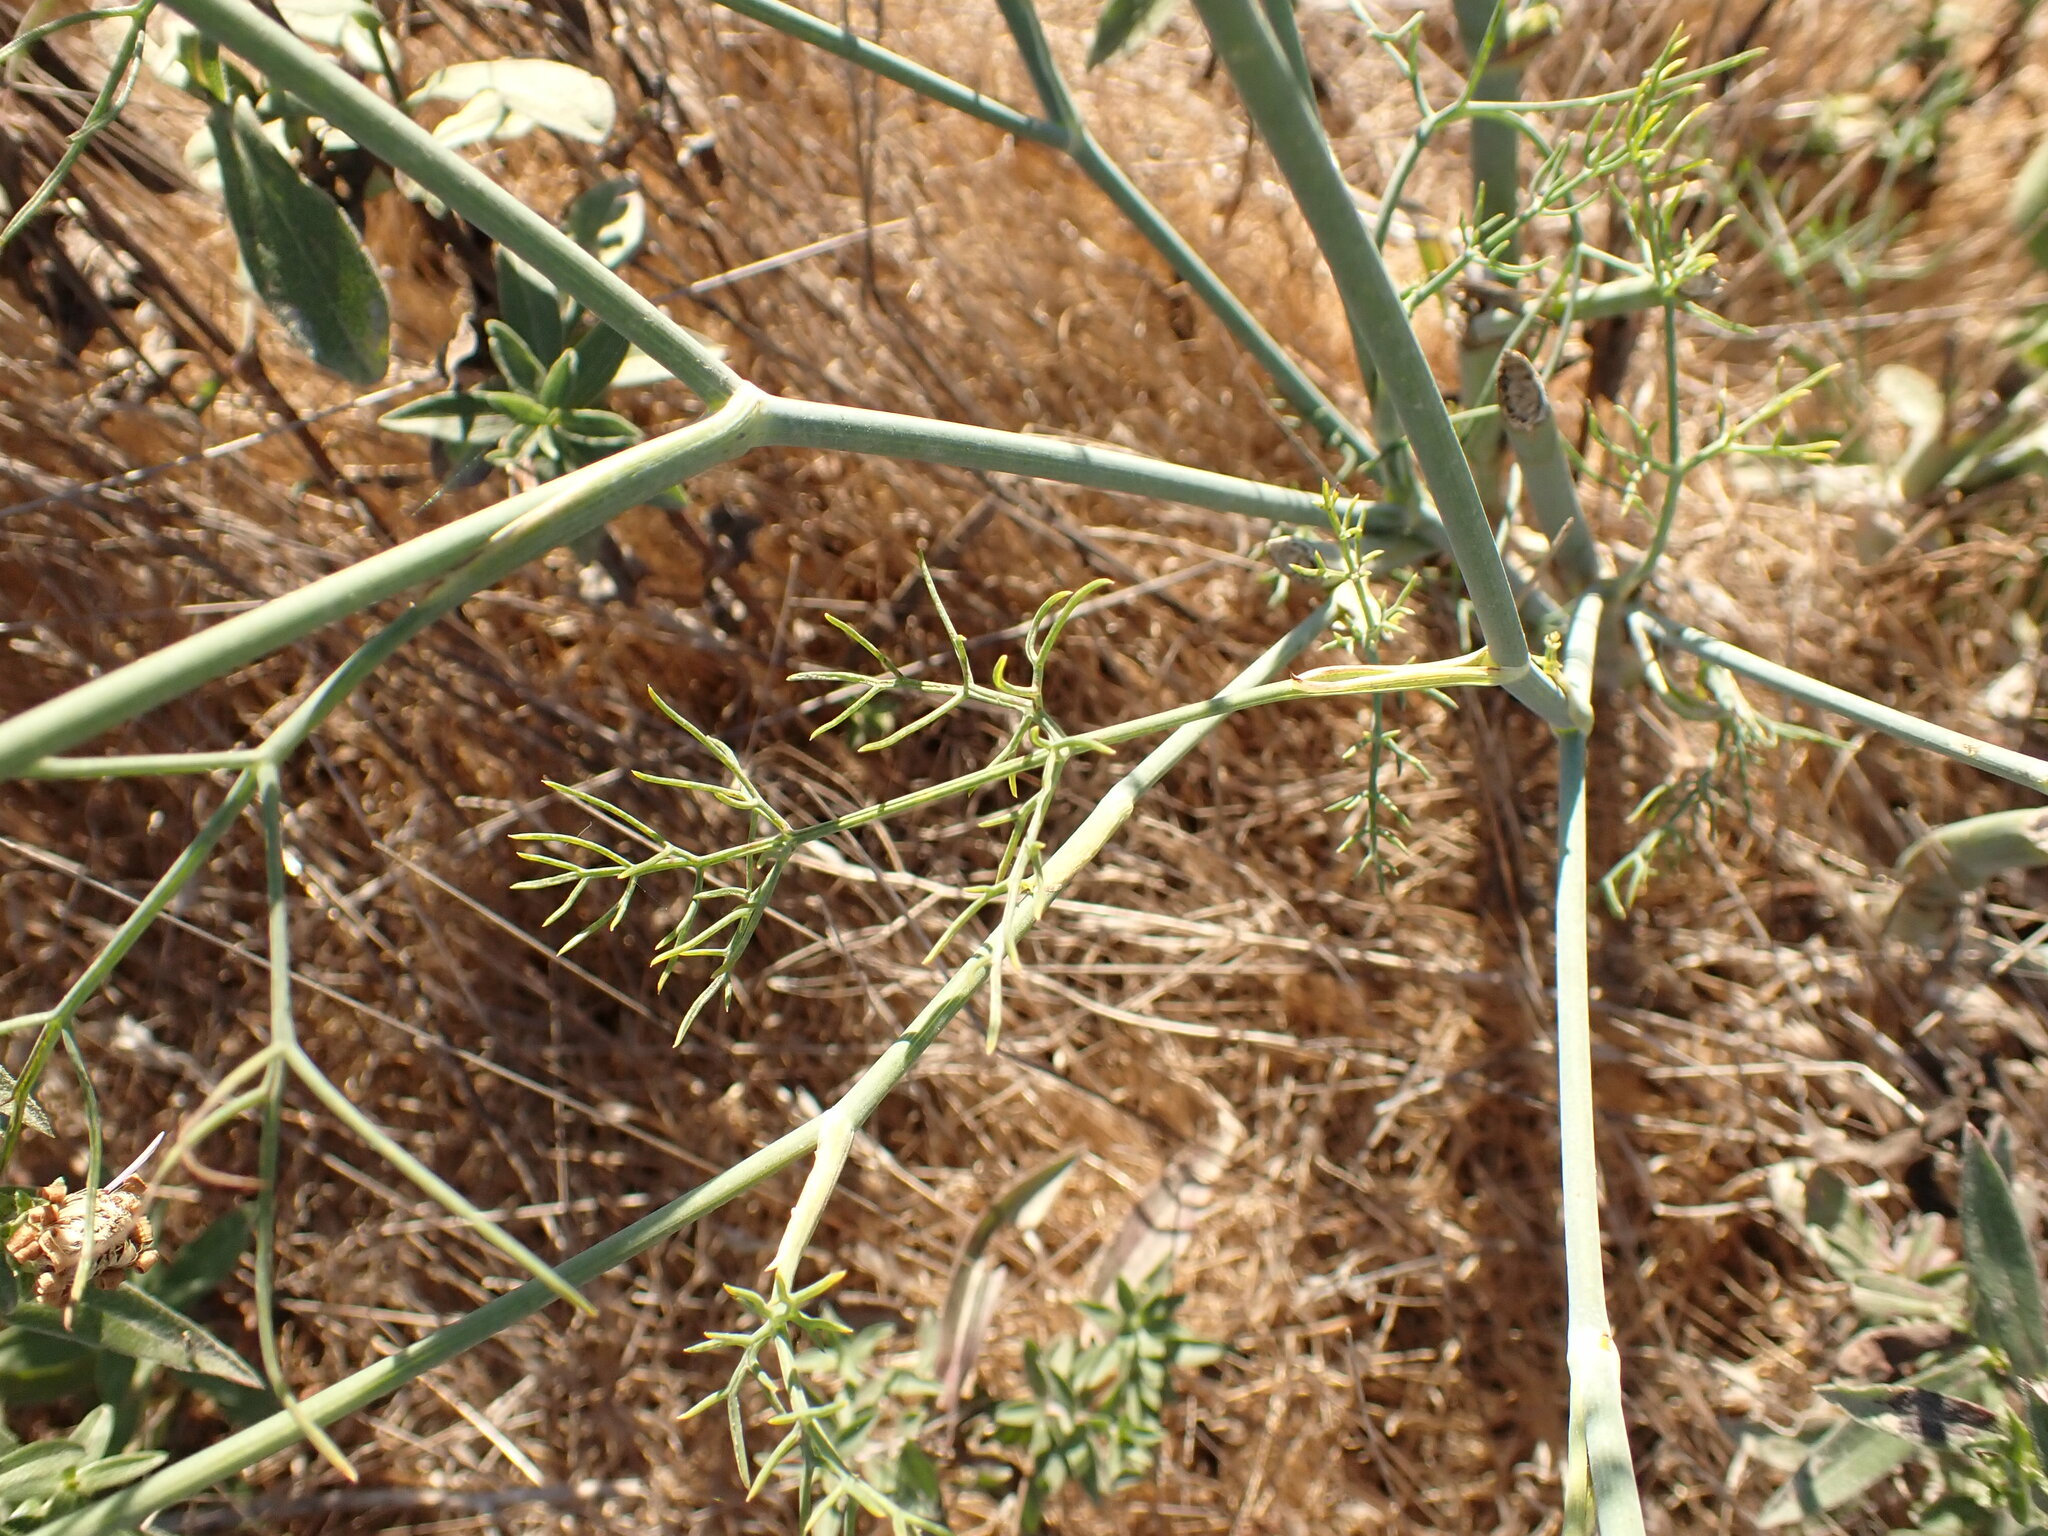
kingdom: Plantae
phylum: Tracheophyta
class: Magnoliopsida
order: Apiales
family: Apiaceae
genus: Foeniculum
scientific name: Foeniculum vulgare
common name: Fennel
